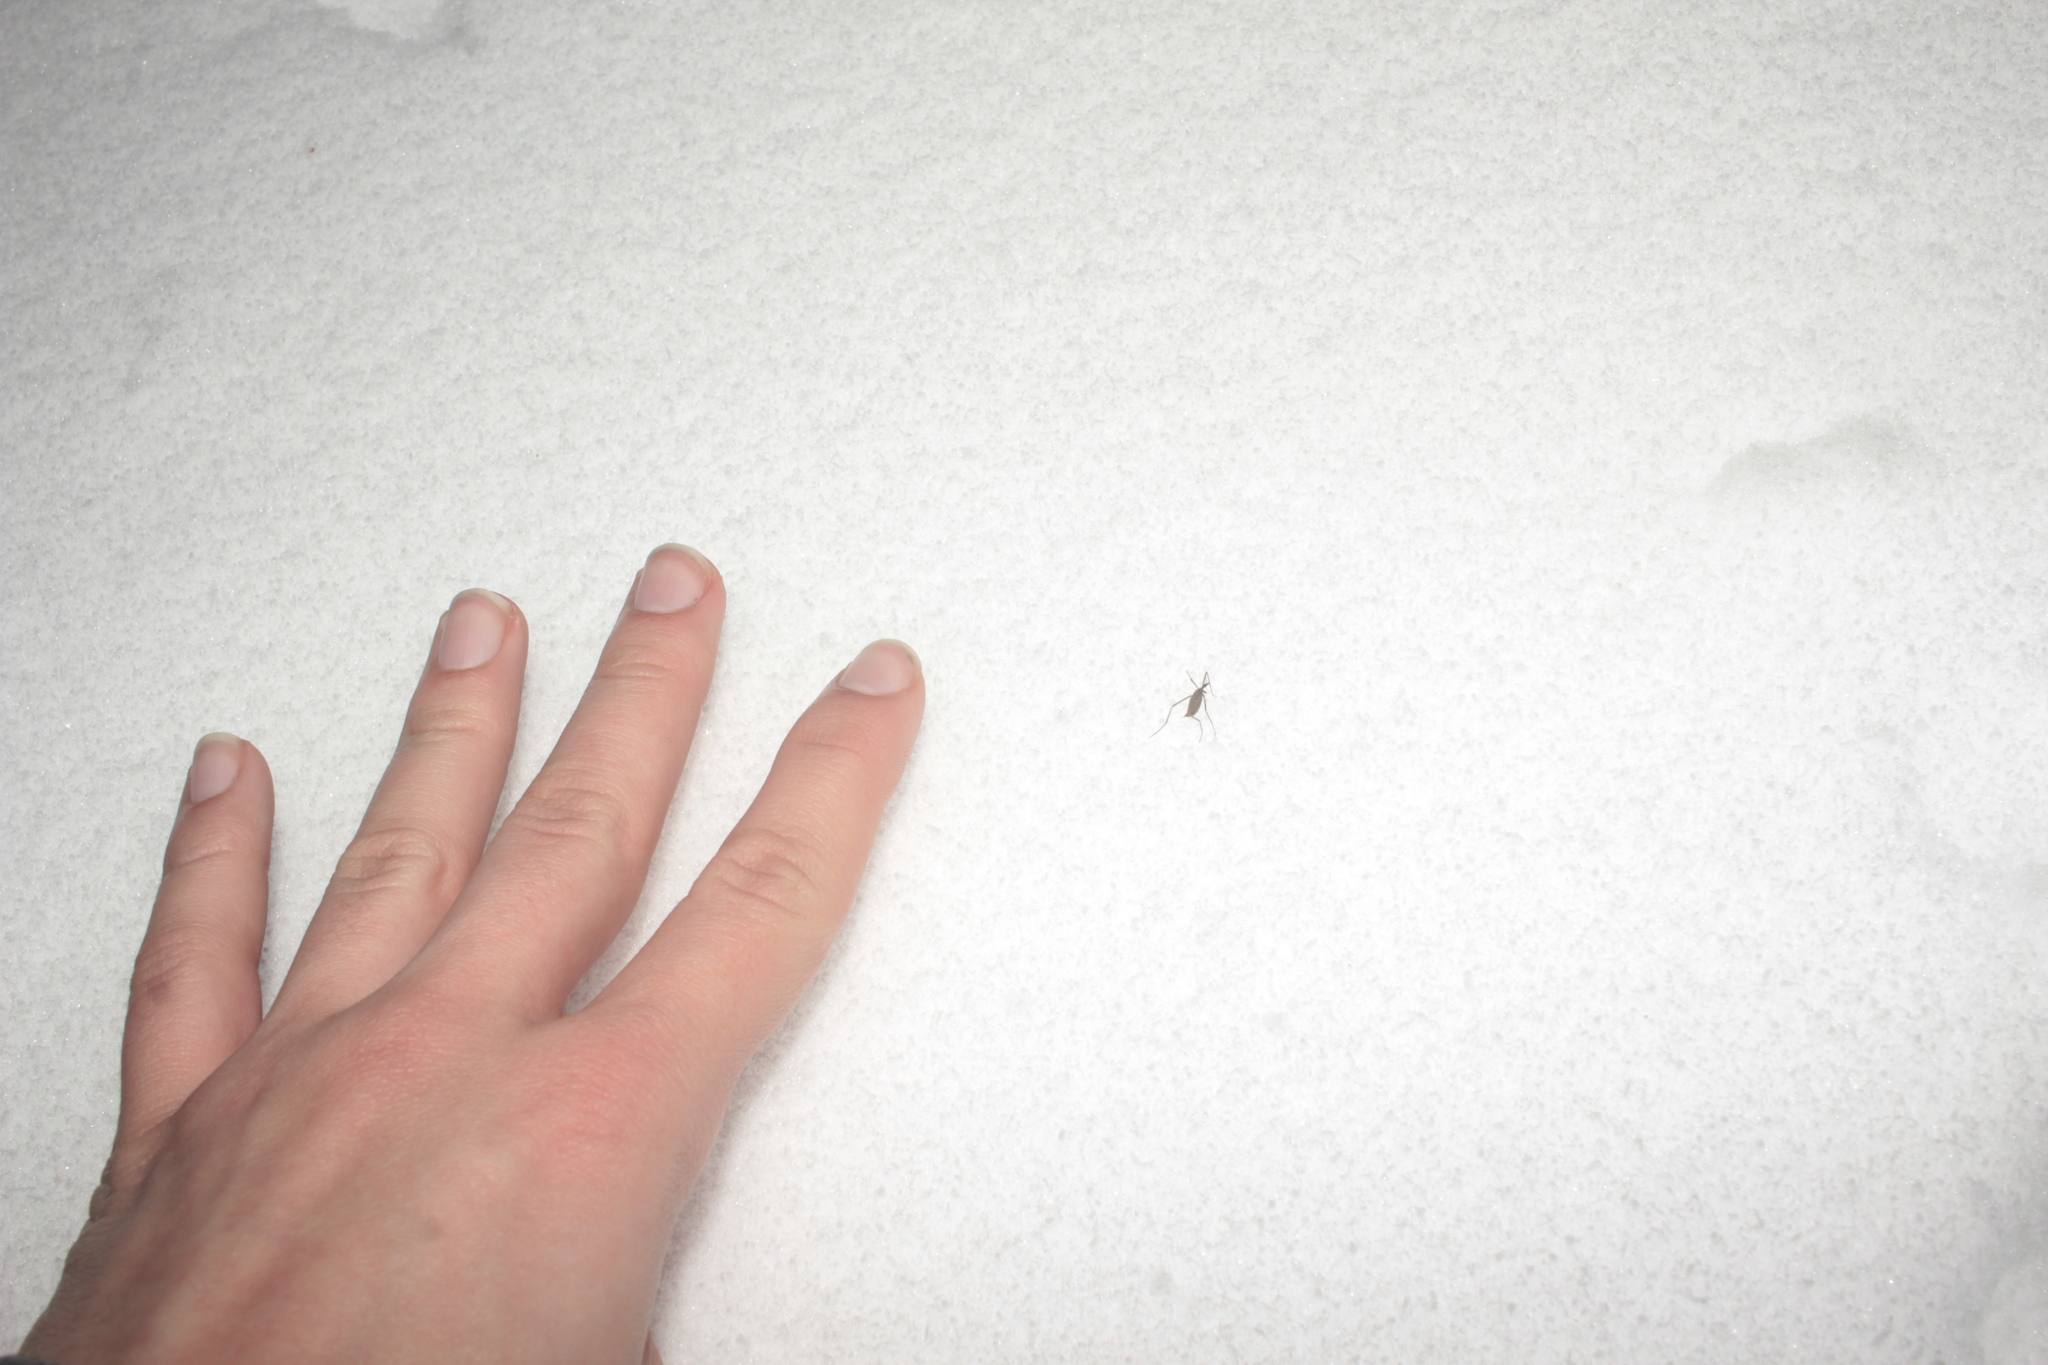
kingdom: Animalia
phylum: Arthropoda
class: Insecta
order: Diptera
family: Limoniidae
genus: Chionea
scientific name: Chionea
